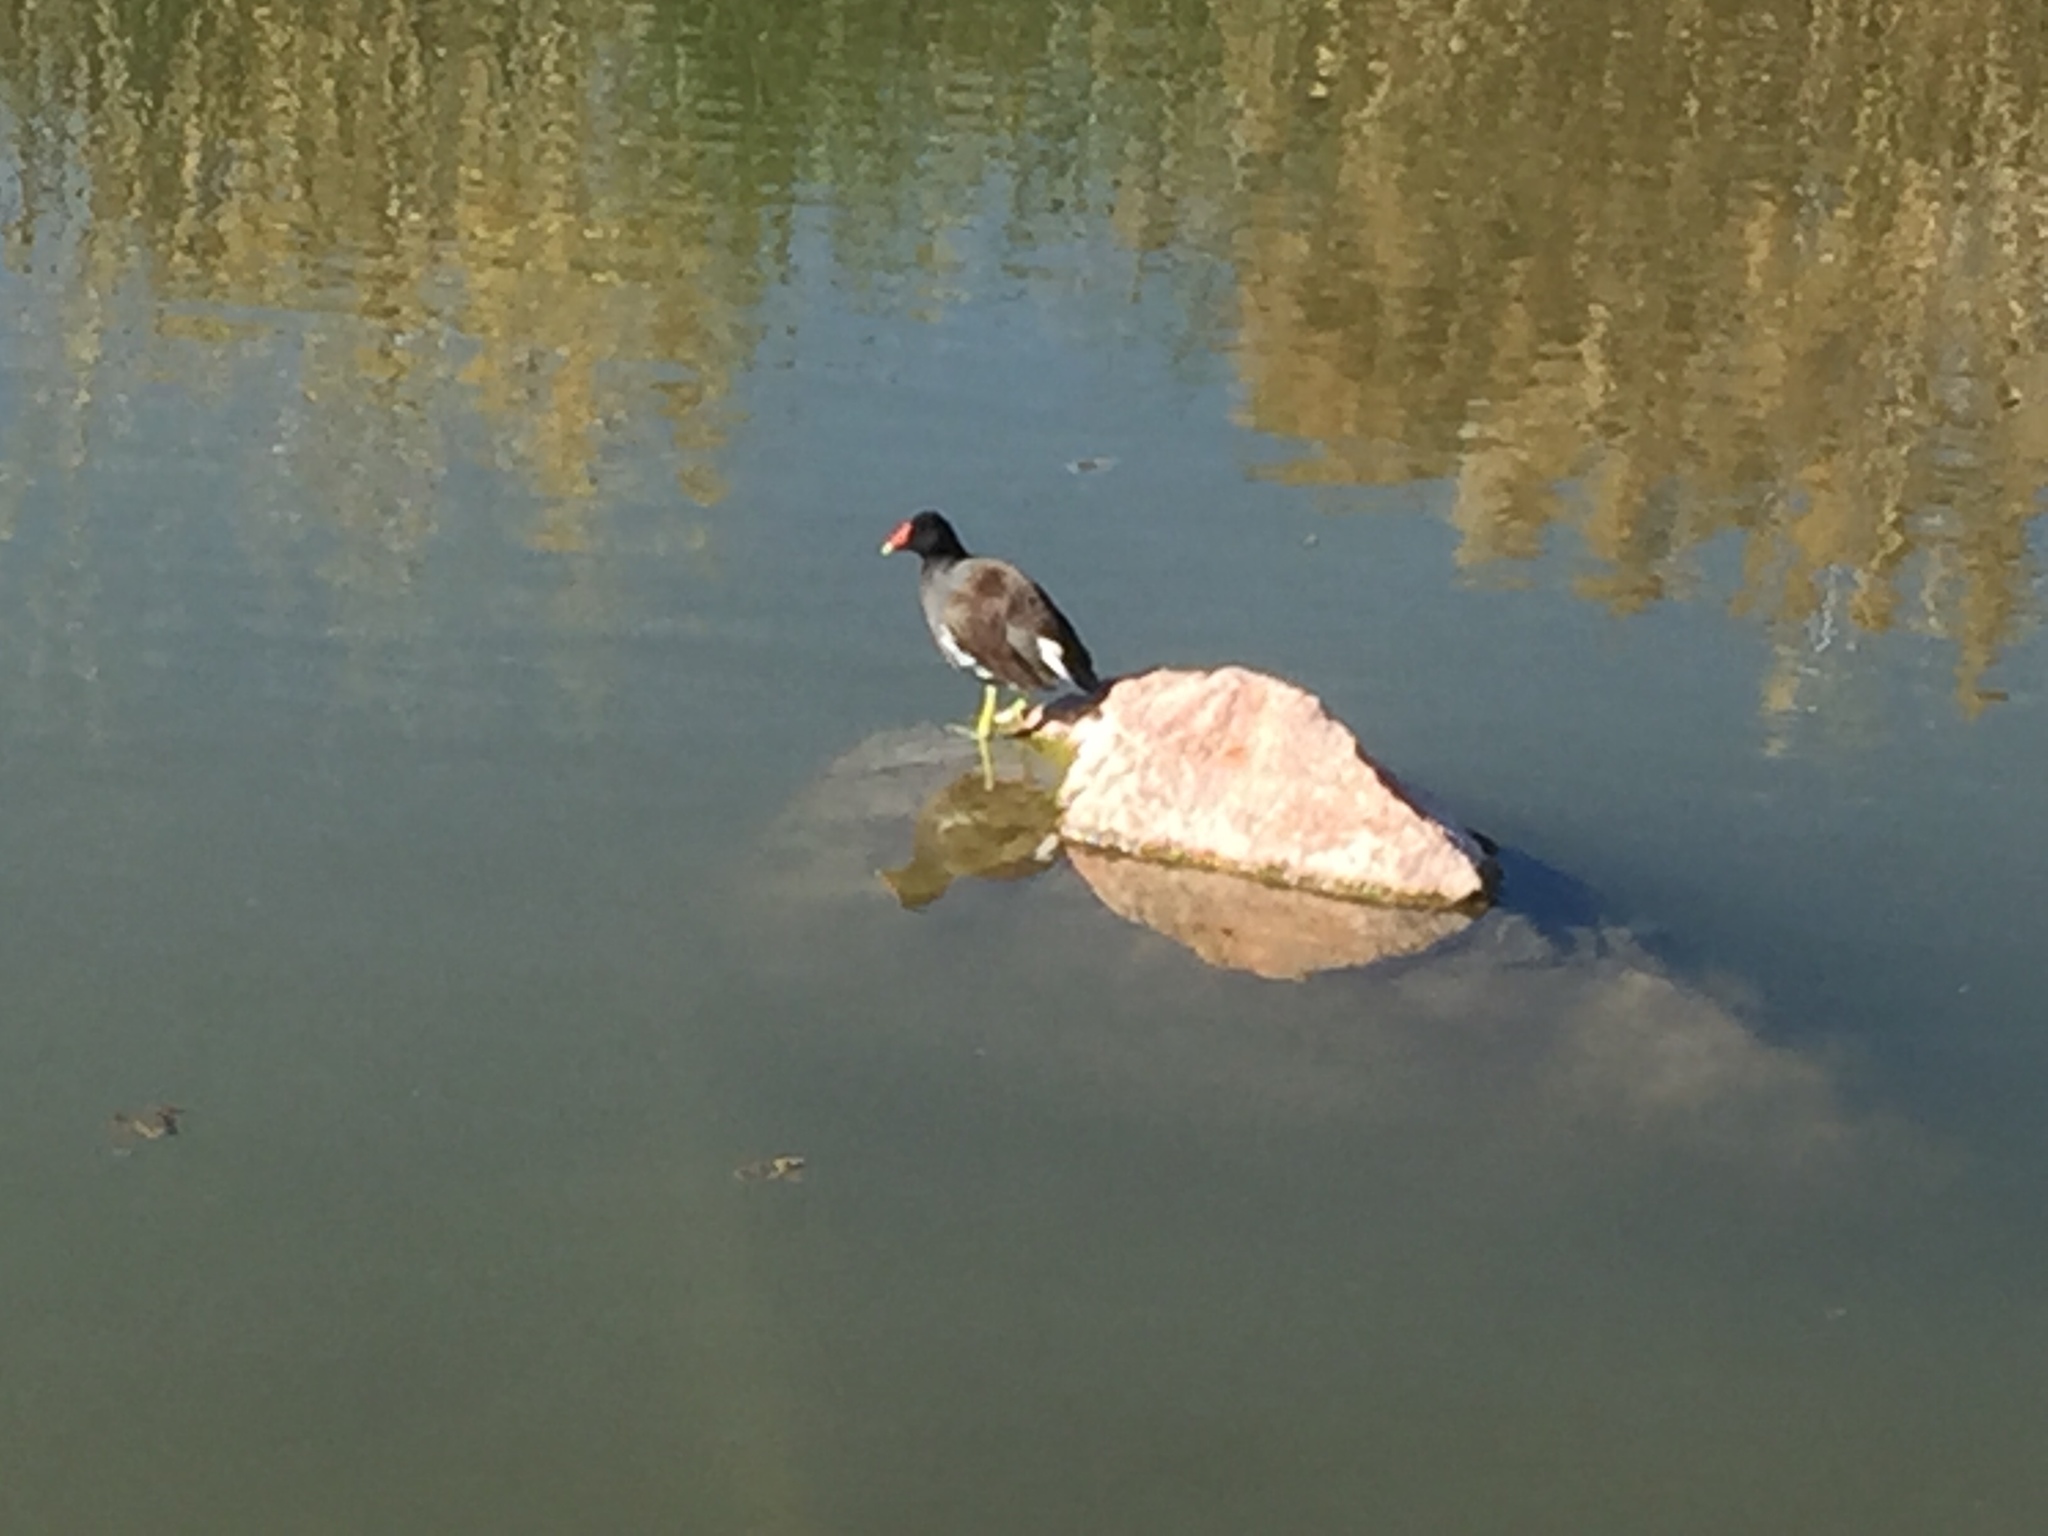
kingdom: Animalia
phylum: Chordata
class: Aves
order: Gruiformes
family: Rallidae
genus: Gallinula
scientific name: Gallinula chloropus
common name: Common moorhen
